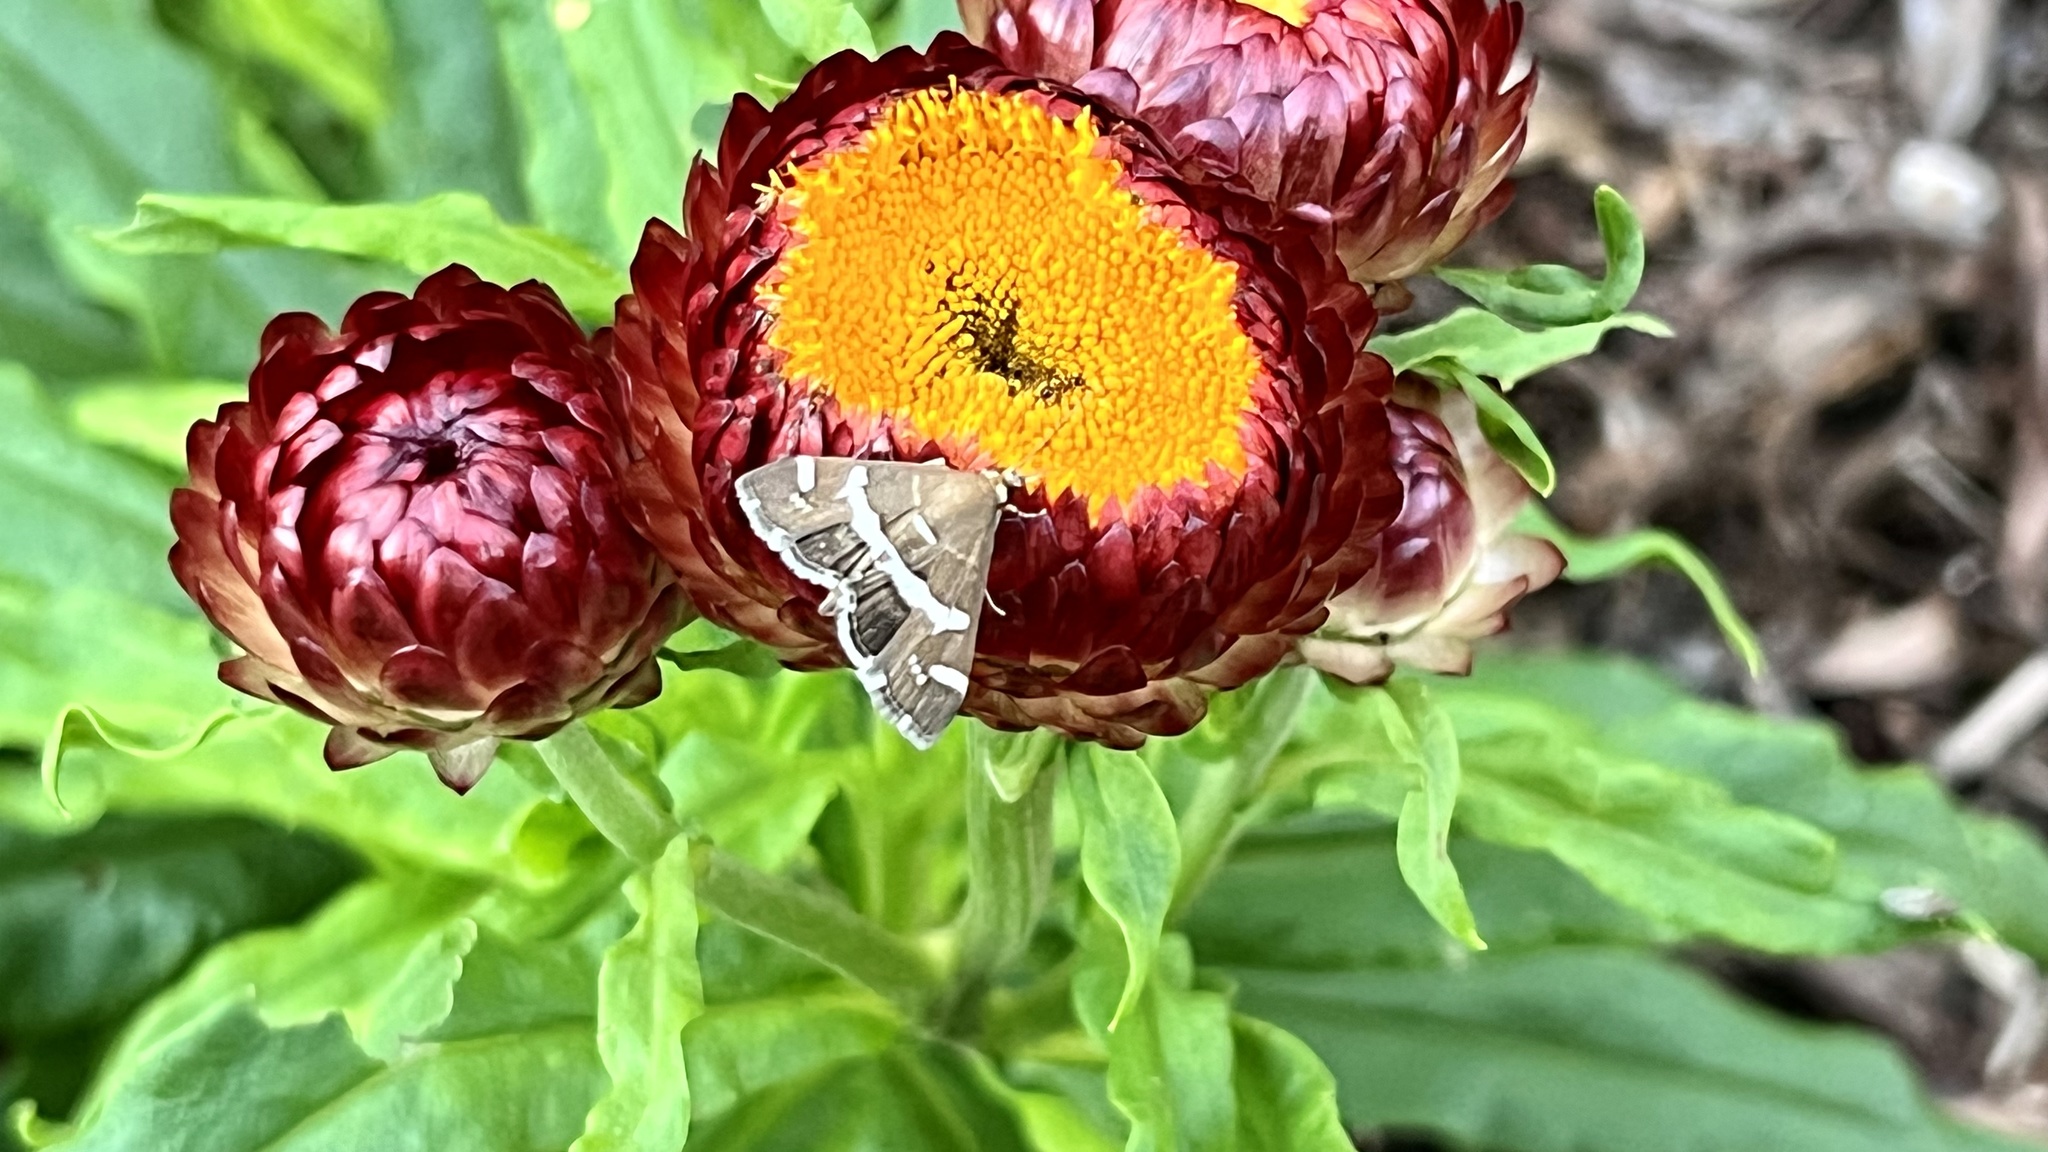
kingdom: Animalia
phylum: Arthropoda
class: Insecta
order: Lepidoptera
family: Crambidae
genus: Spoladea
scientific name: Spoladea recurvalis
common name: Beet webworm moth
